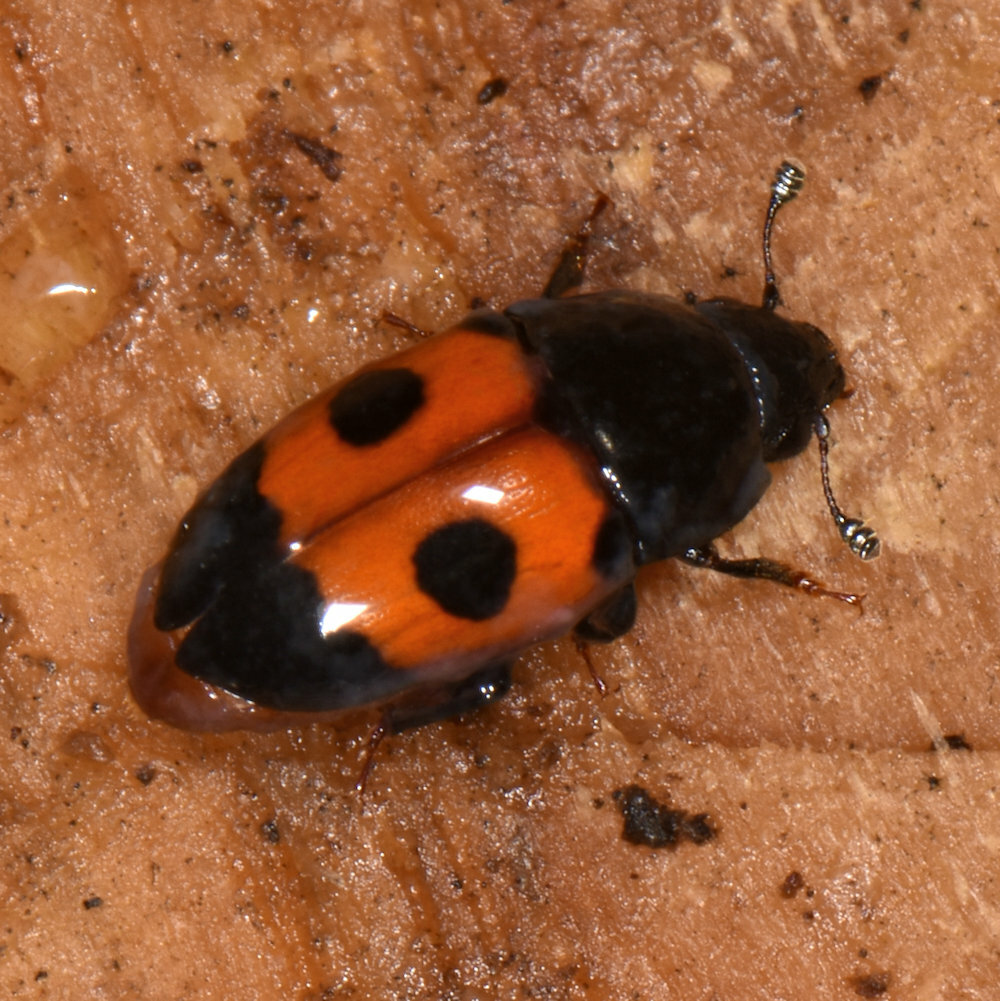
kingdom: Animalia
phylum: Arthropoda
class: Insecta
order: Coleoptera
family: Nitidulidae
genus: Glischrochilus
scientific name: Glischrochilus sanguinolentus
